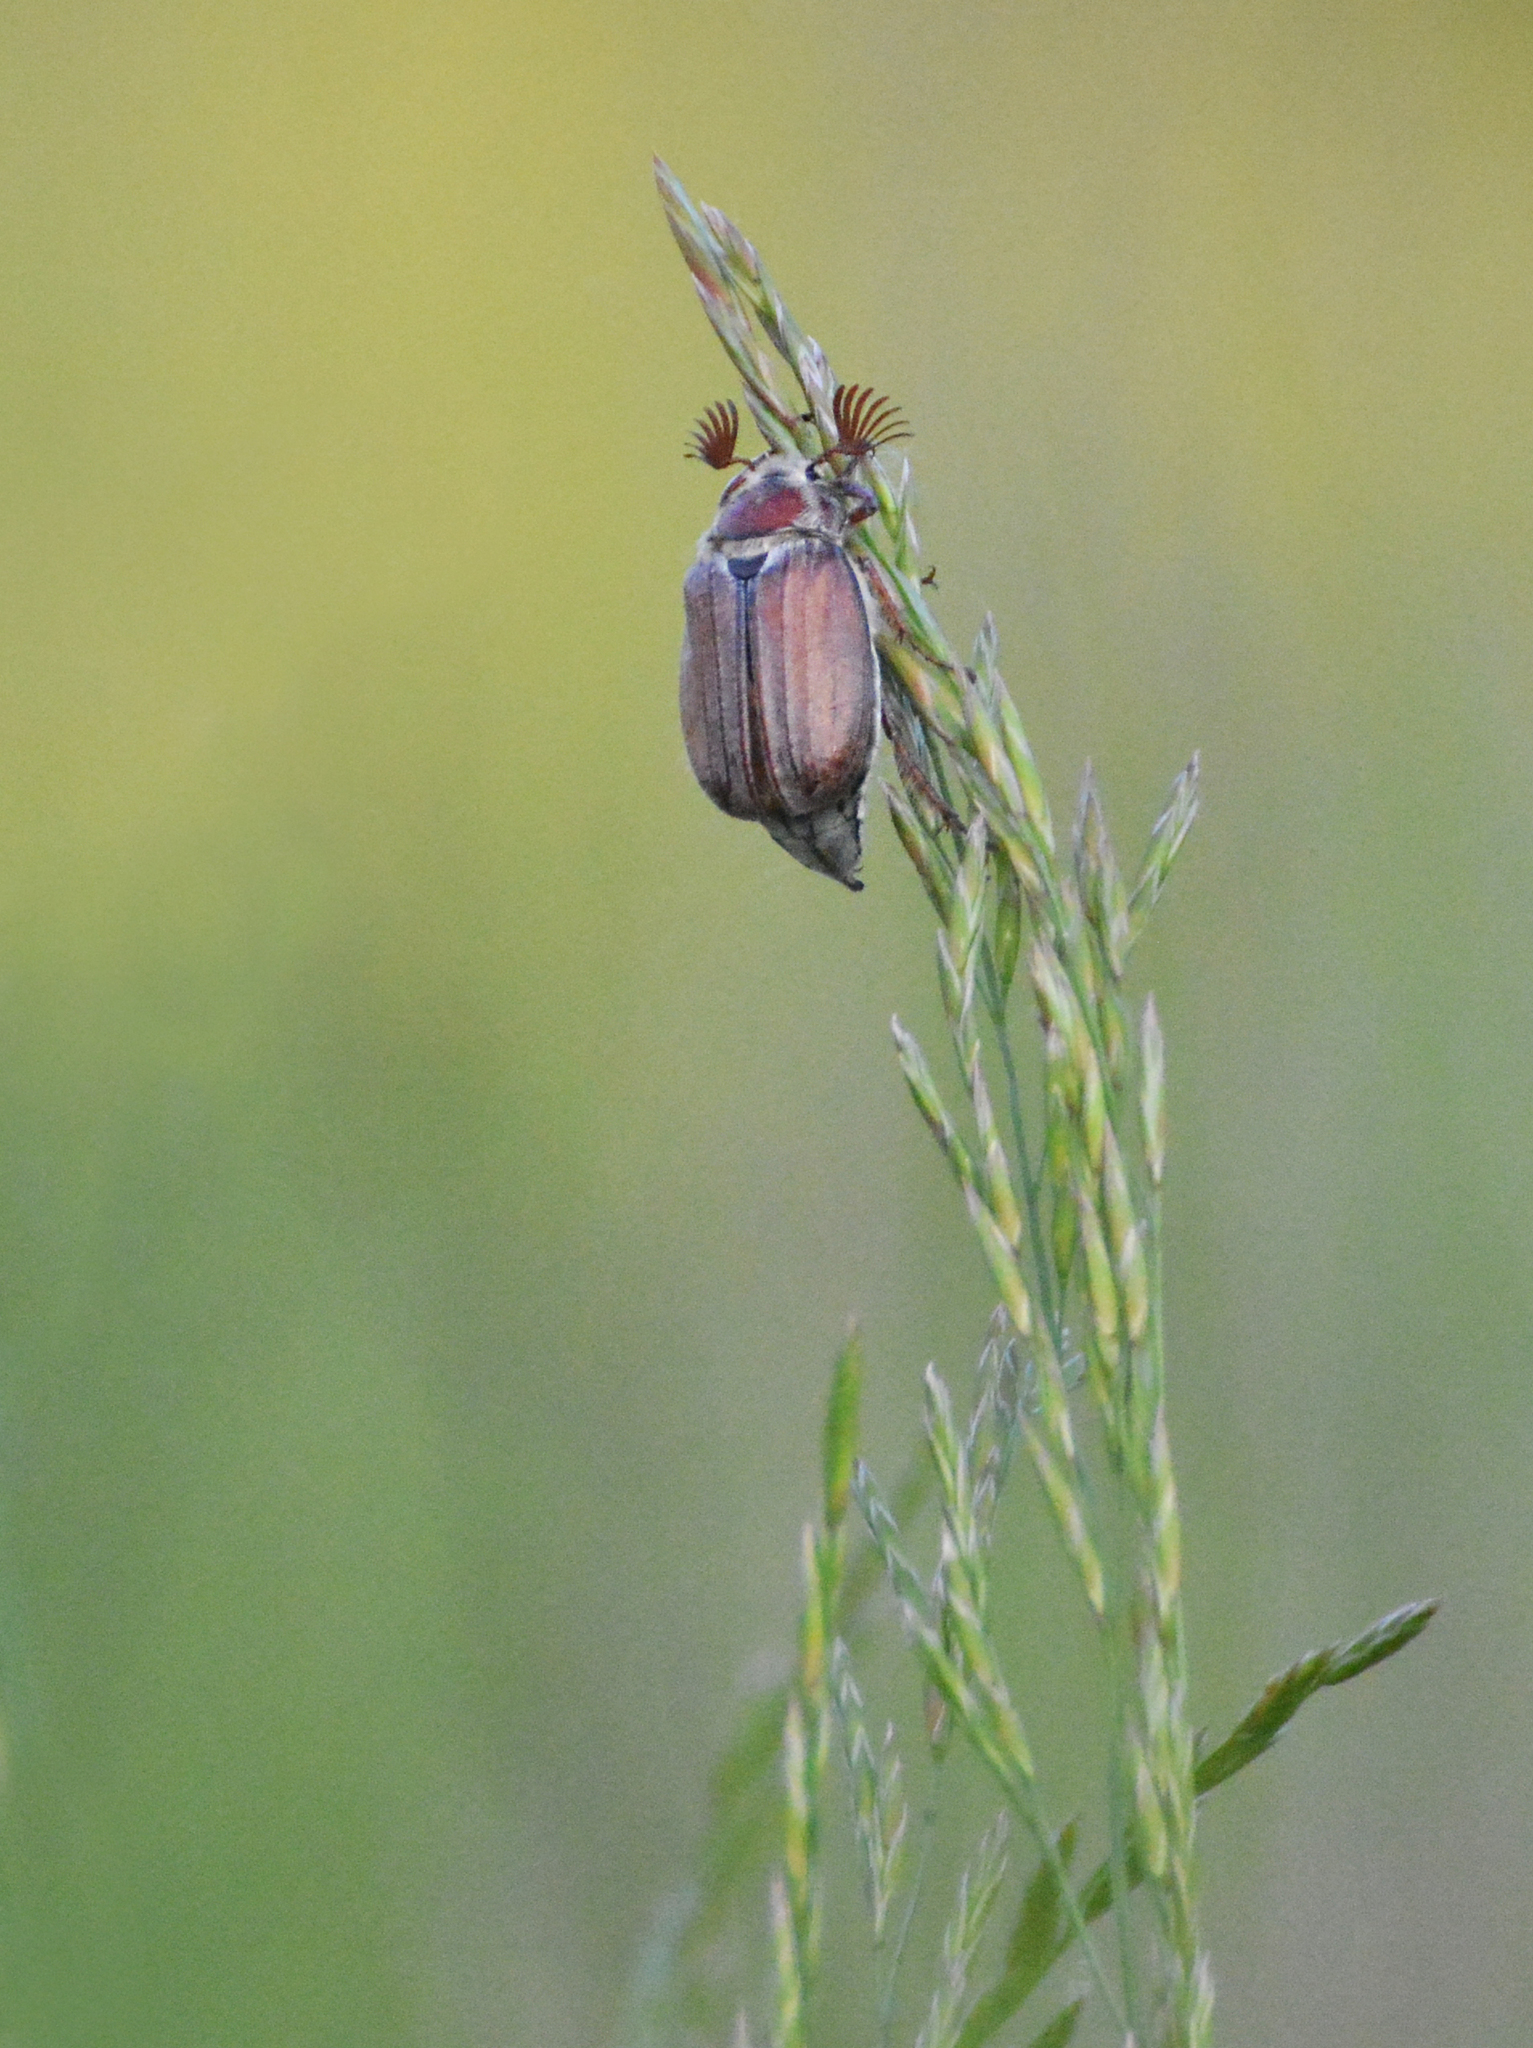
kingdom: Animalia
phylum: Arthropoda
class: Insecta
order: Coleoptera
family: Scarabaeidae
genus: Melolontha
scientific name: Melolontha hippocastani
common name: Chestnut cockchafer
